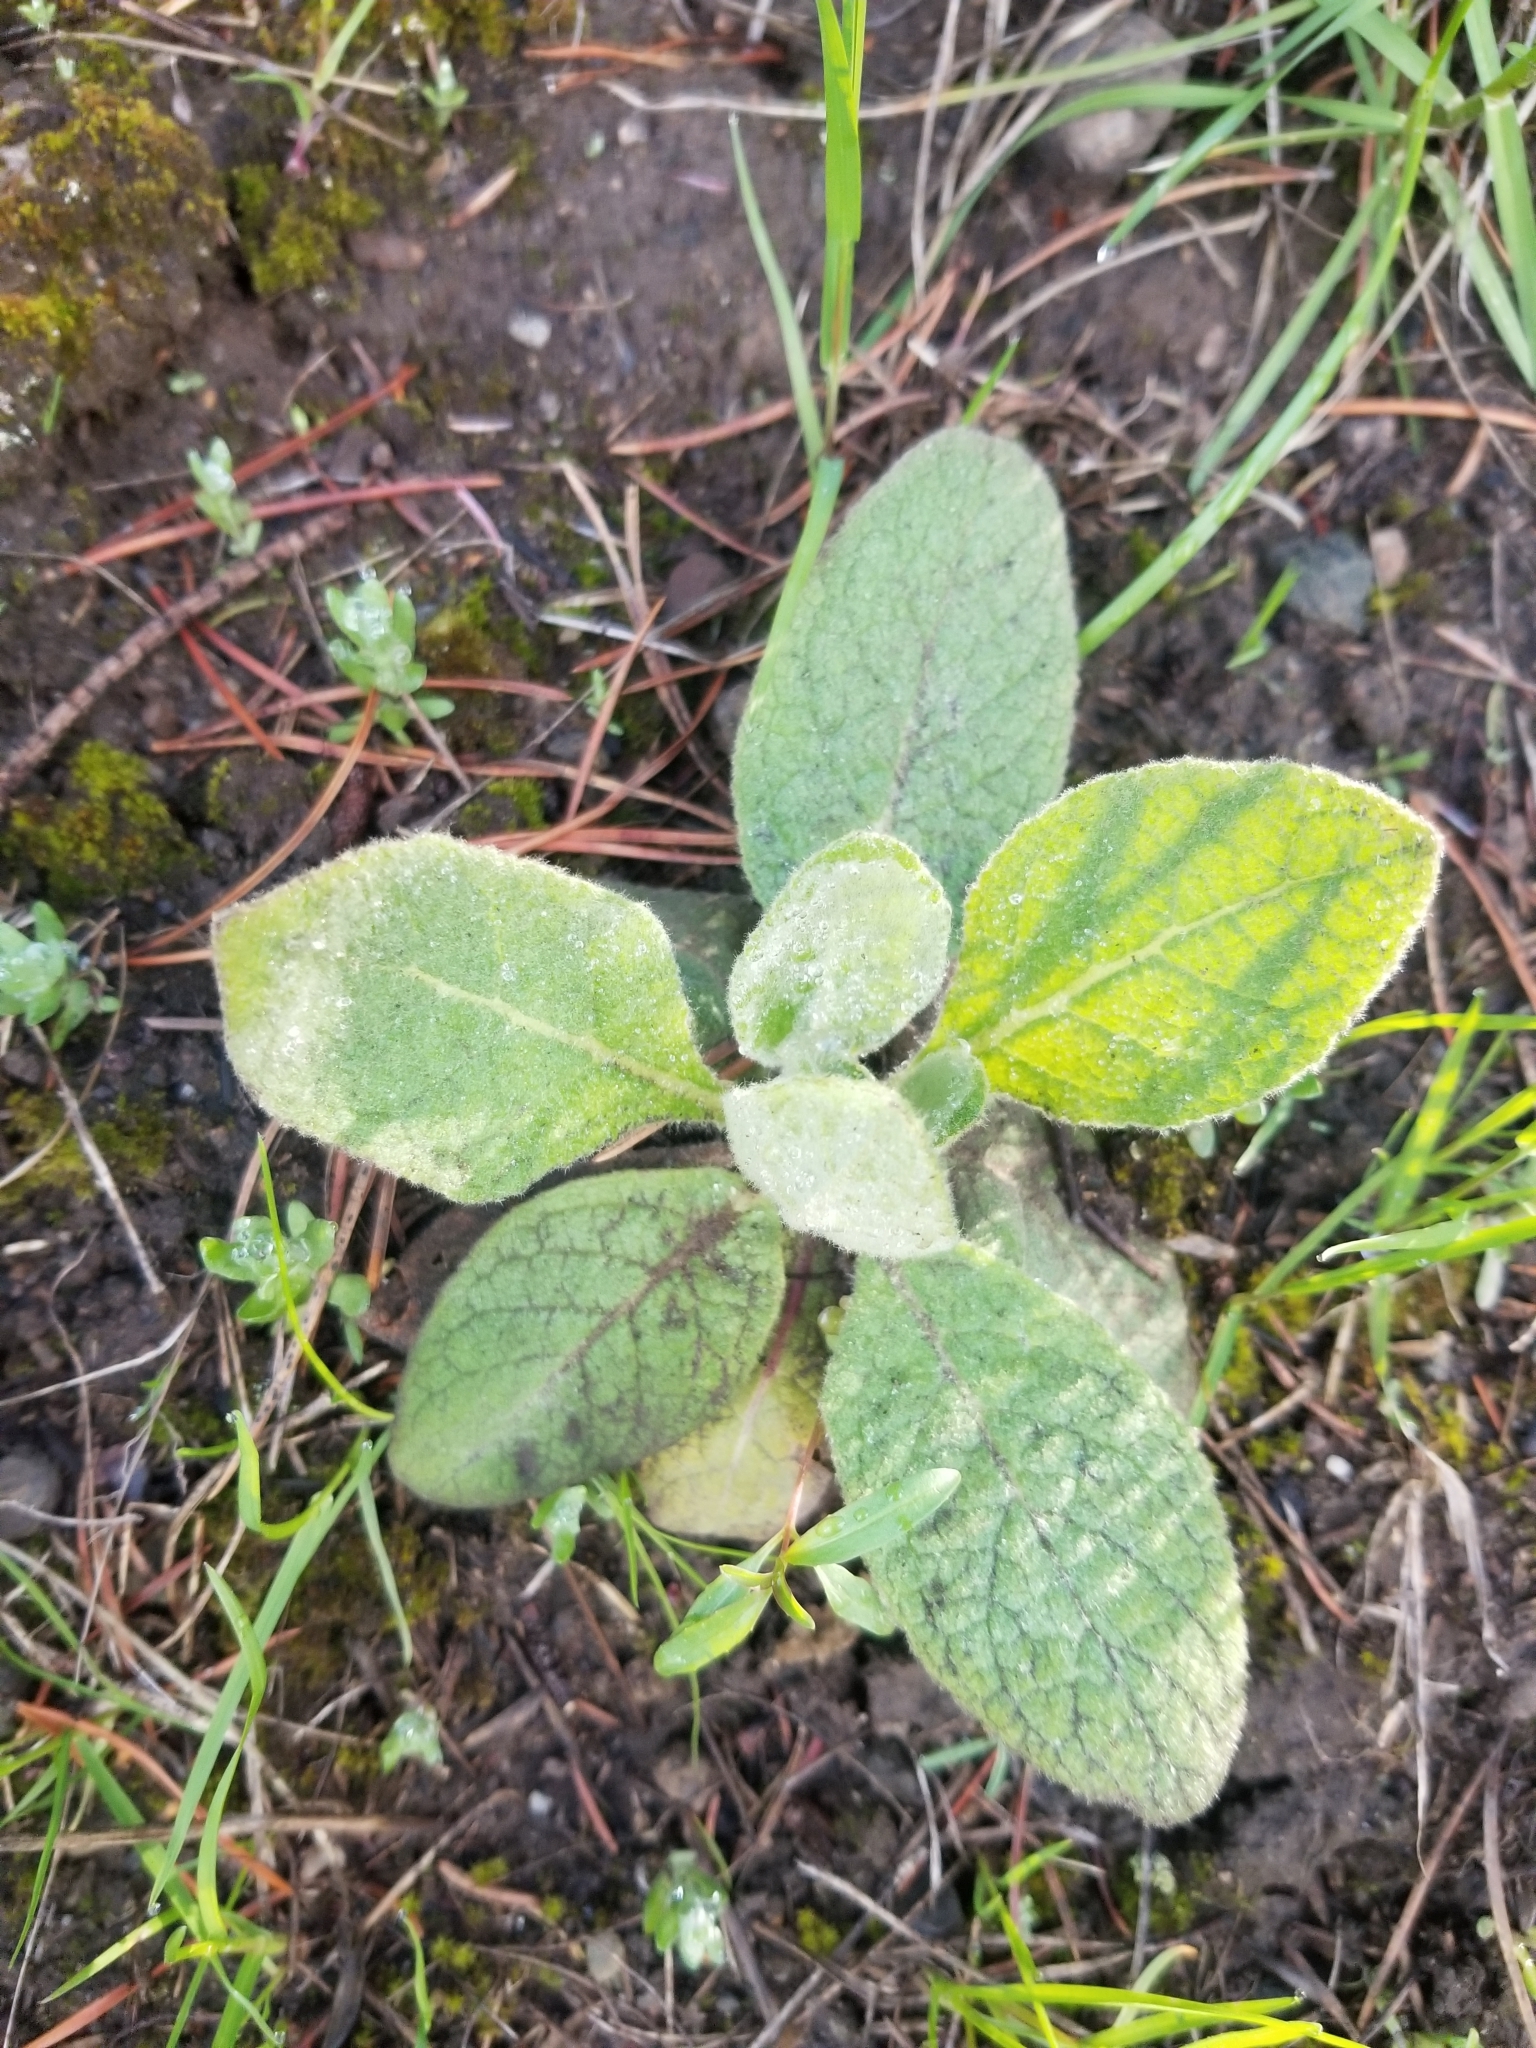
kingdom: Plantae
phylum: Tracheophyta
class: Magnoliopsida
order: Lamiales
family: Scrophulariaceae
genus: Verbascum
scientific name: Verbascum thapsus
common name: Common mullein
